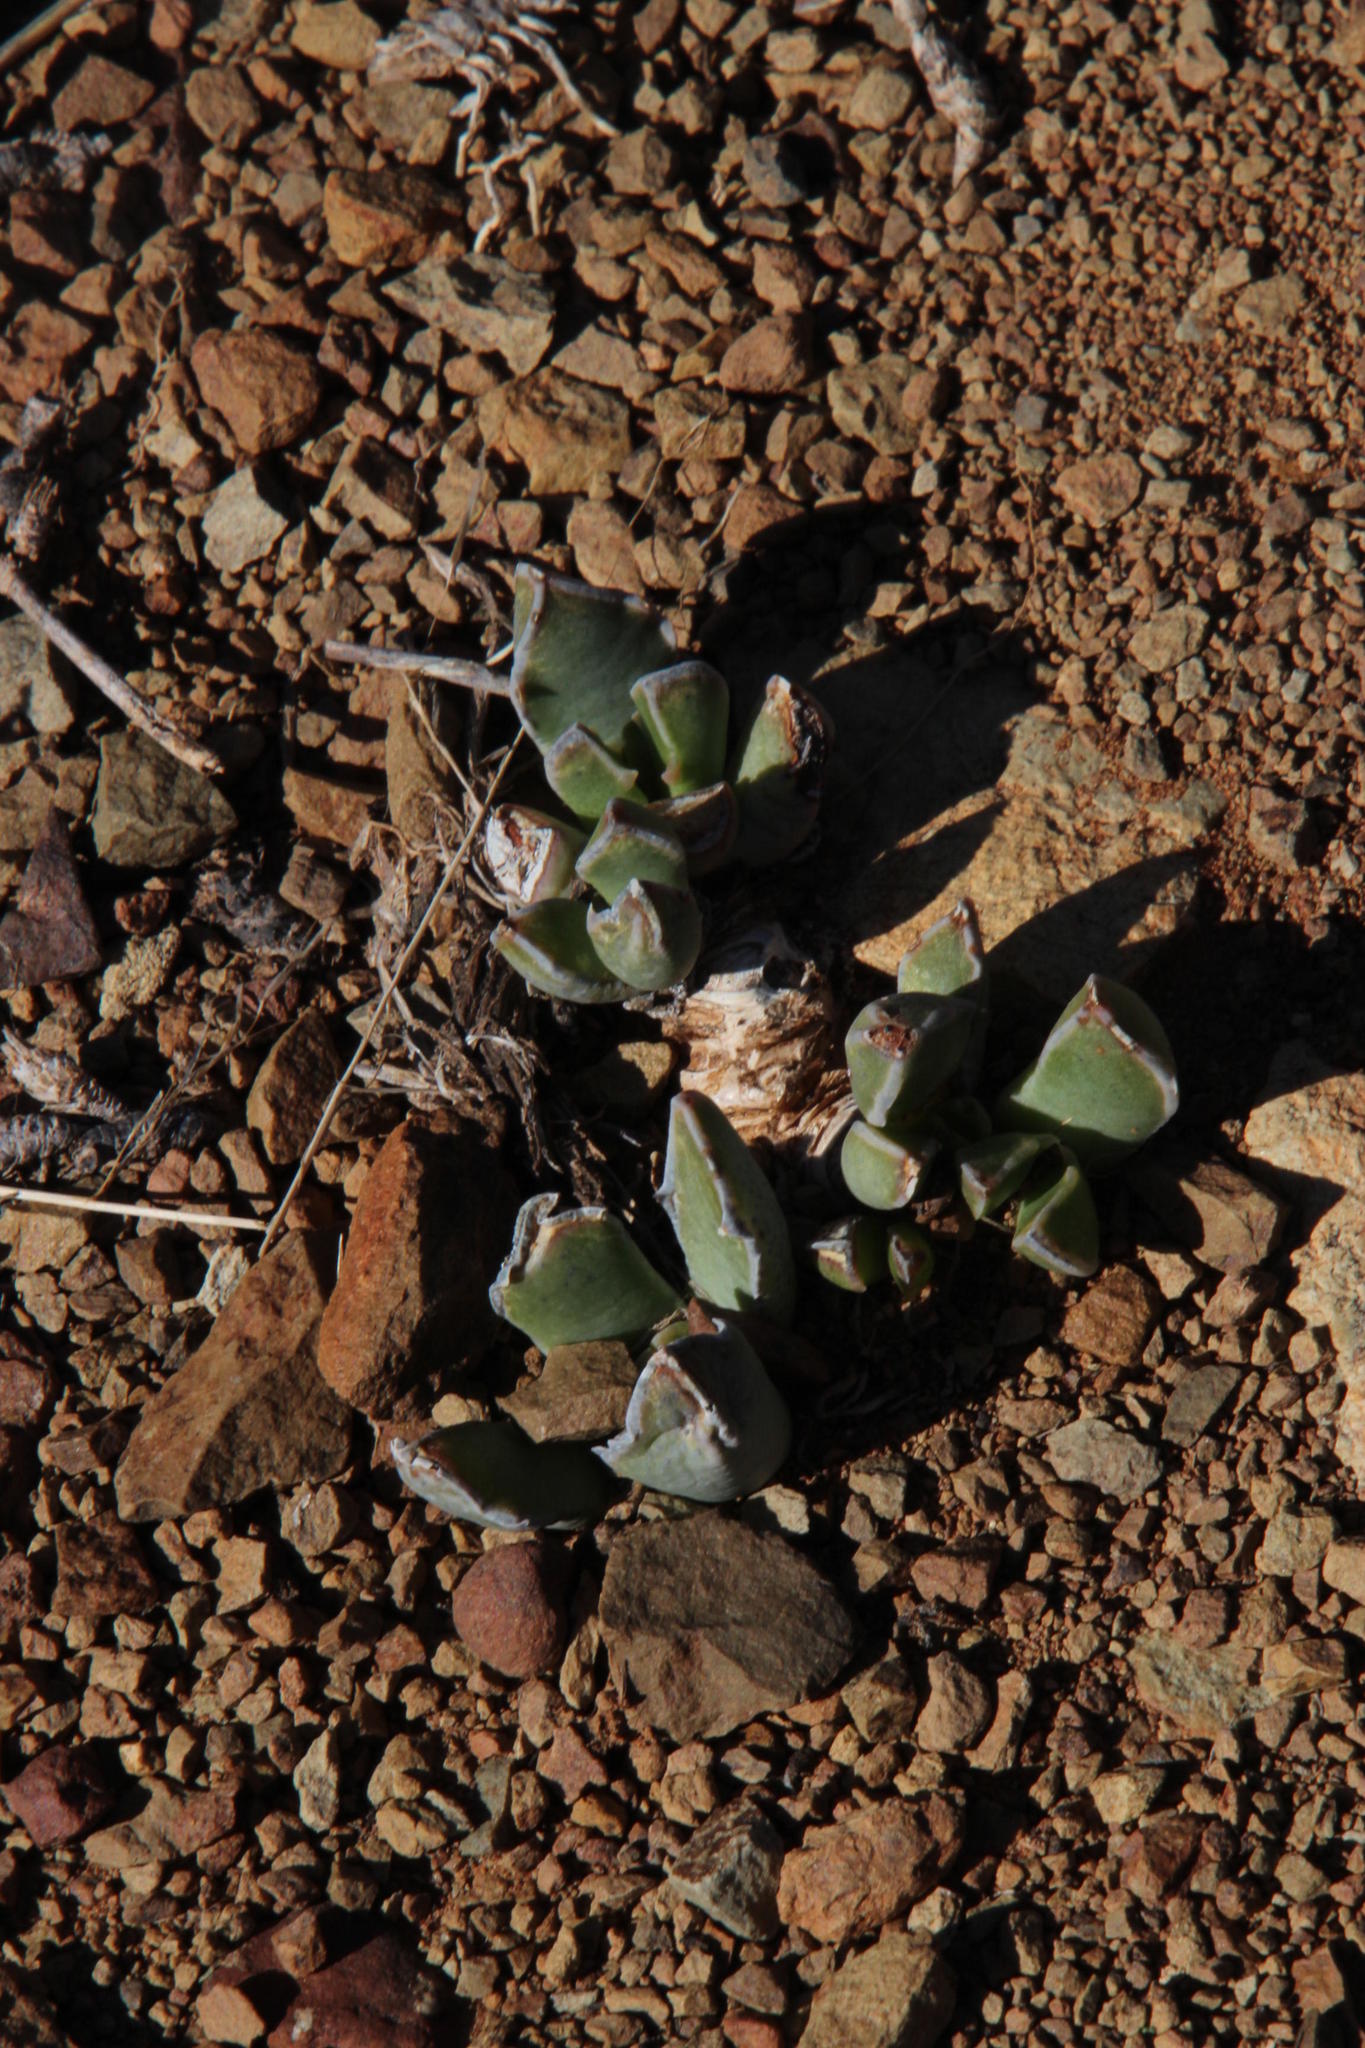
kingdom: Plantae
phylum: Tracheophyta
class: Magnoliopsida
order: Caryophyllales
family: Aizoaceae
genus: Faucaria
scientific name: Faucaria bosscheana
